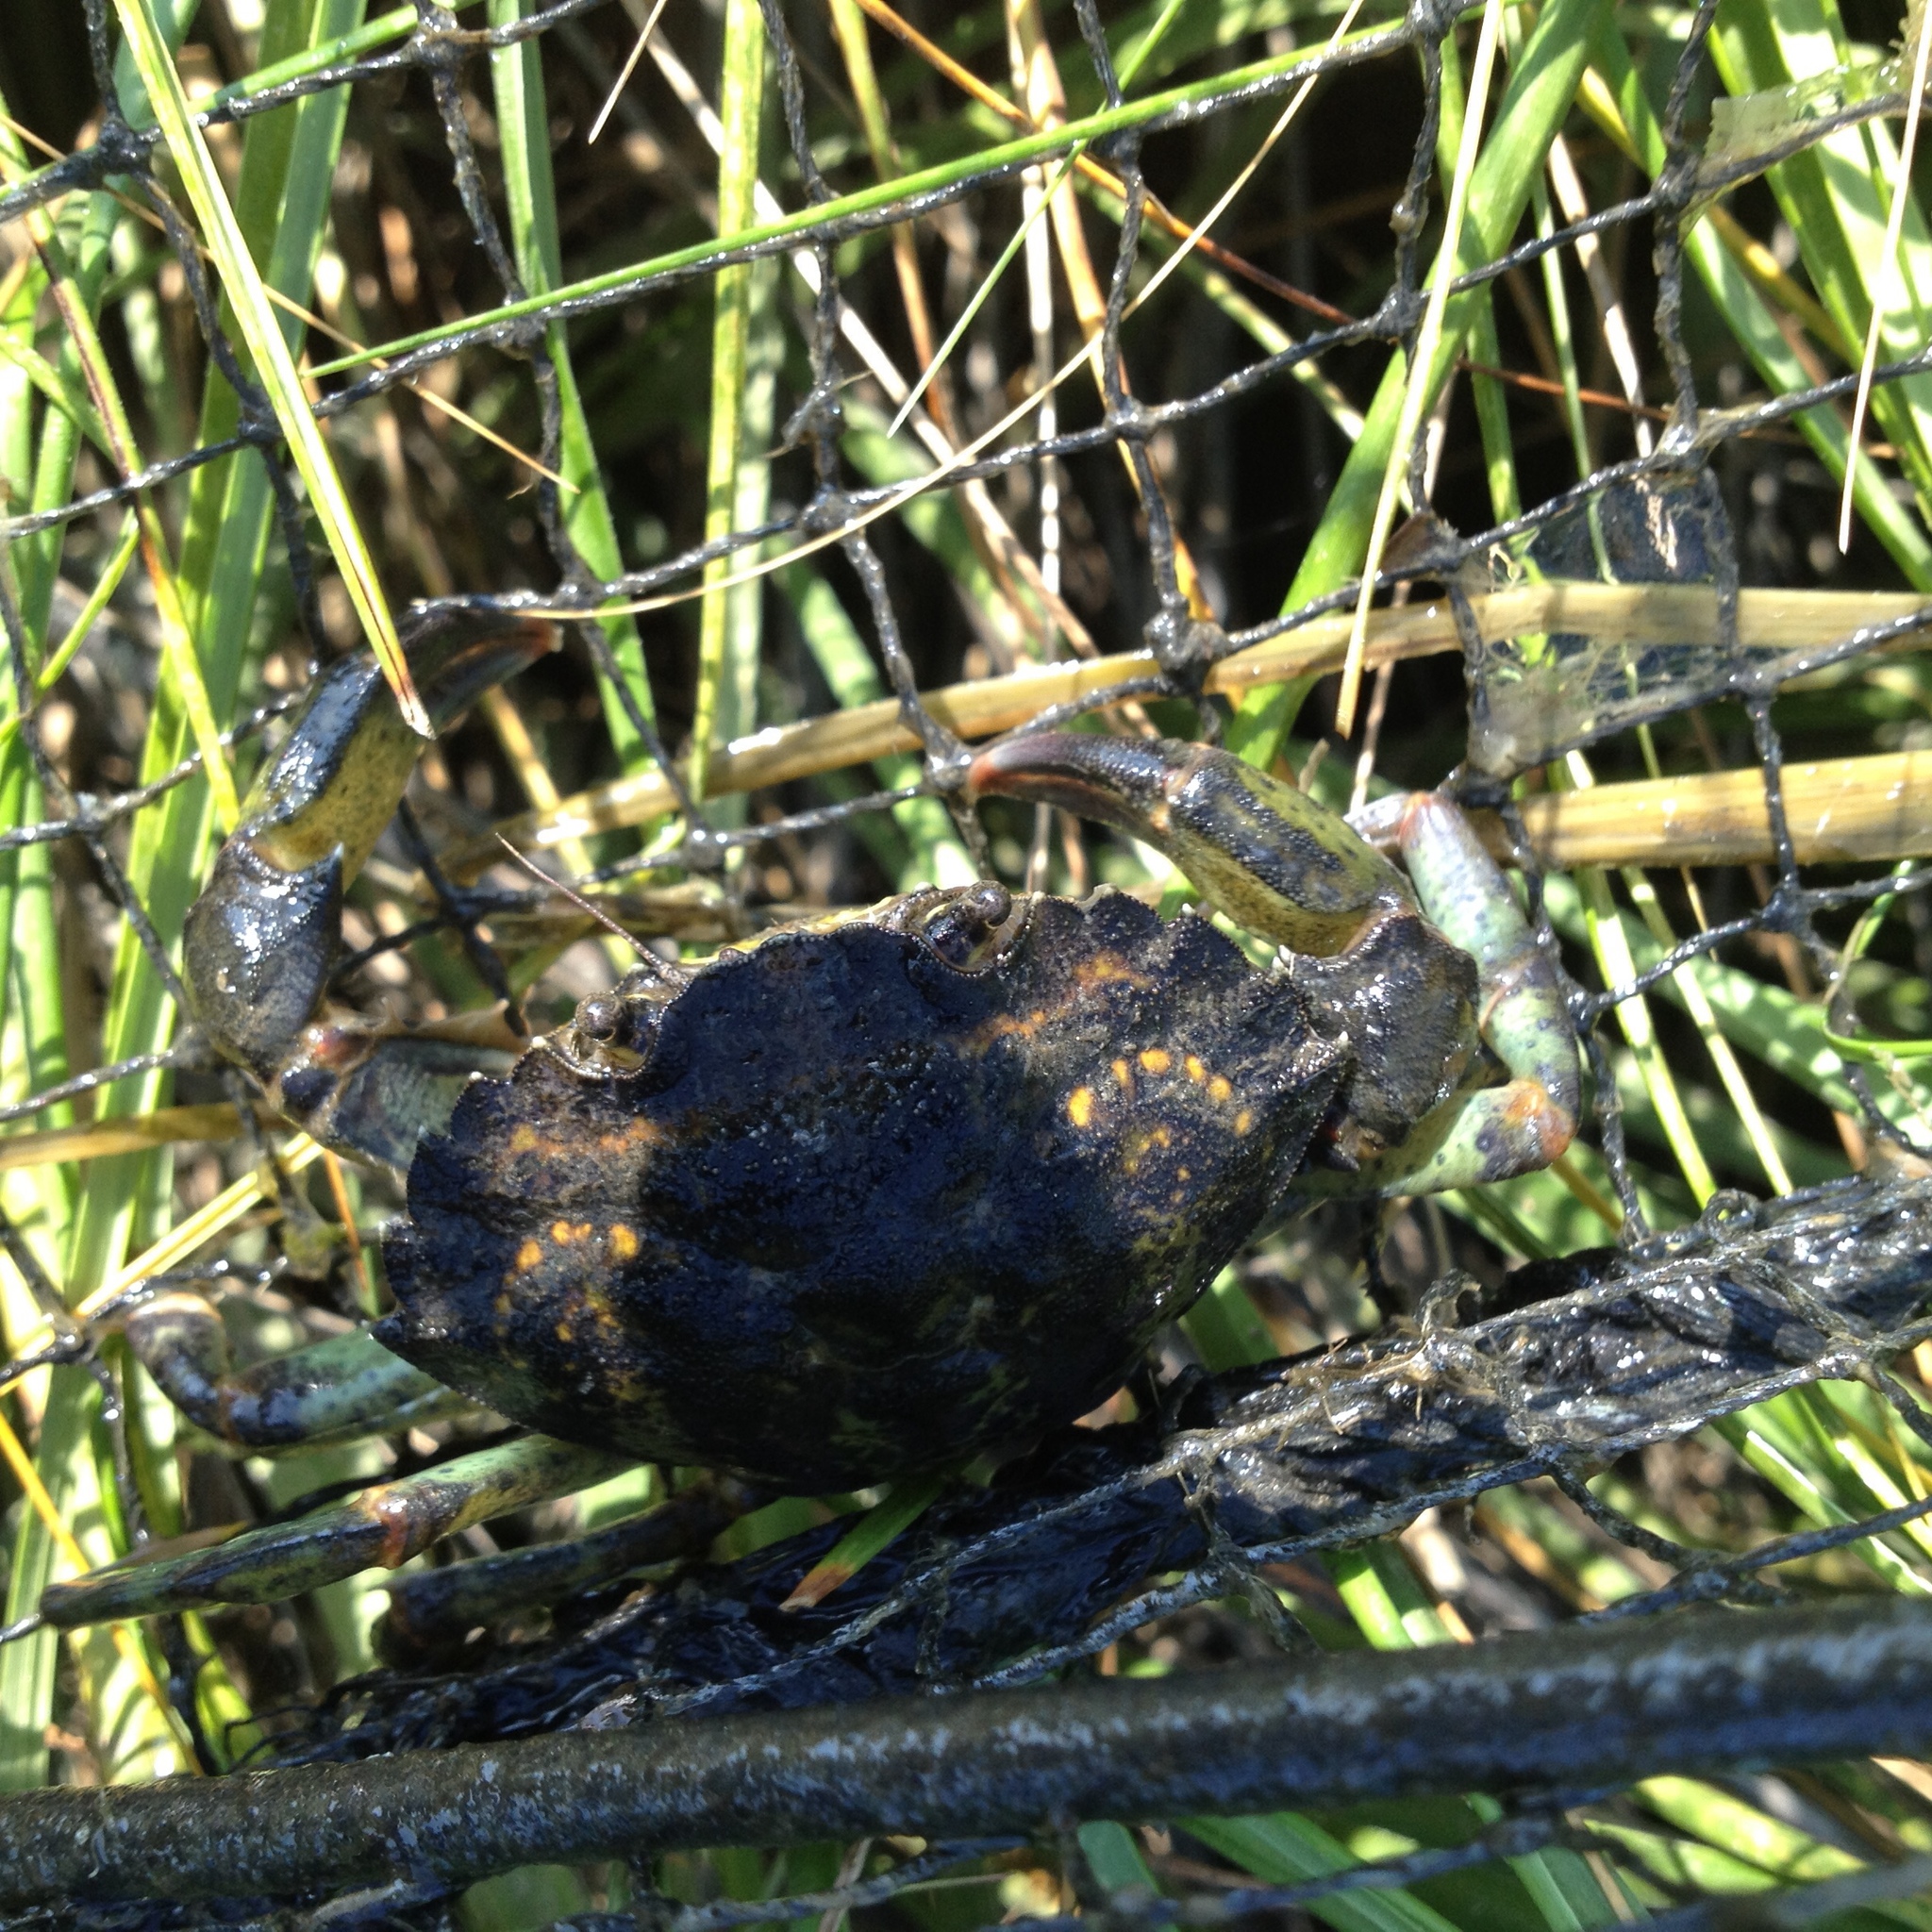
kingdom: Animalia
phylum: Arthropoda
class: Malacostraca
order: Decapoda
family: Carcinidae
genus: Carcinus
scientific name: Carcinus maenas
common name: European green crab
